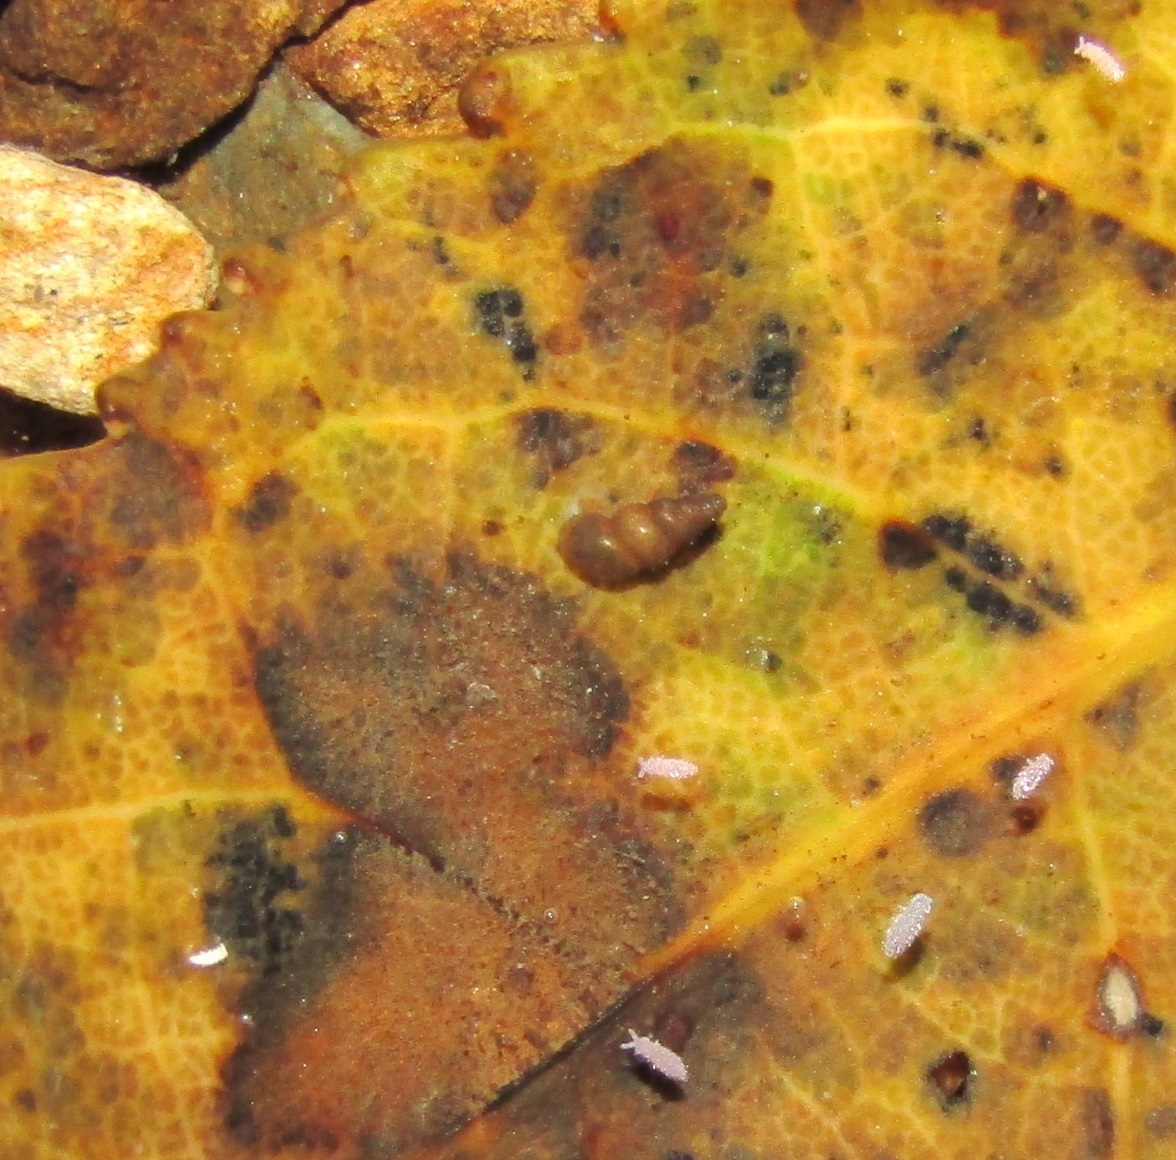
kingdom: Animalia
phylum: Mollusca
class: Gastropoda
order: Littorinimorpha
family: Tateidae
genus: Potamopyrgus
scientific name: Potamopyrgus oppidanus
